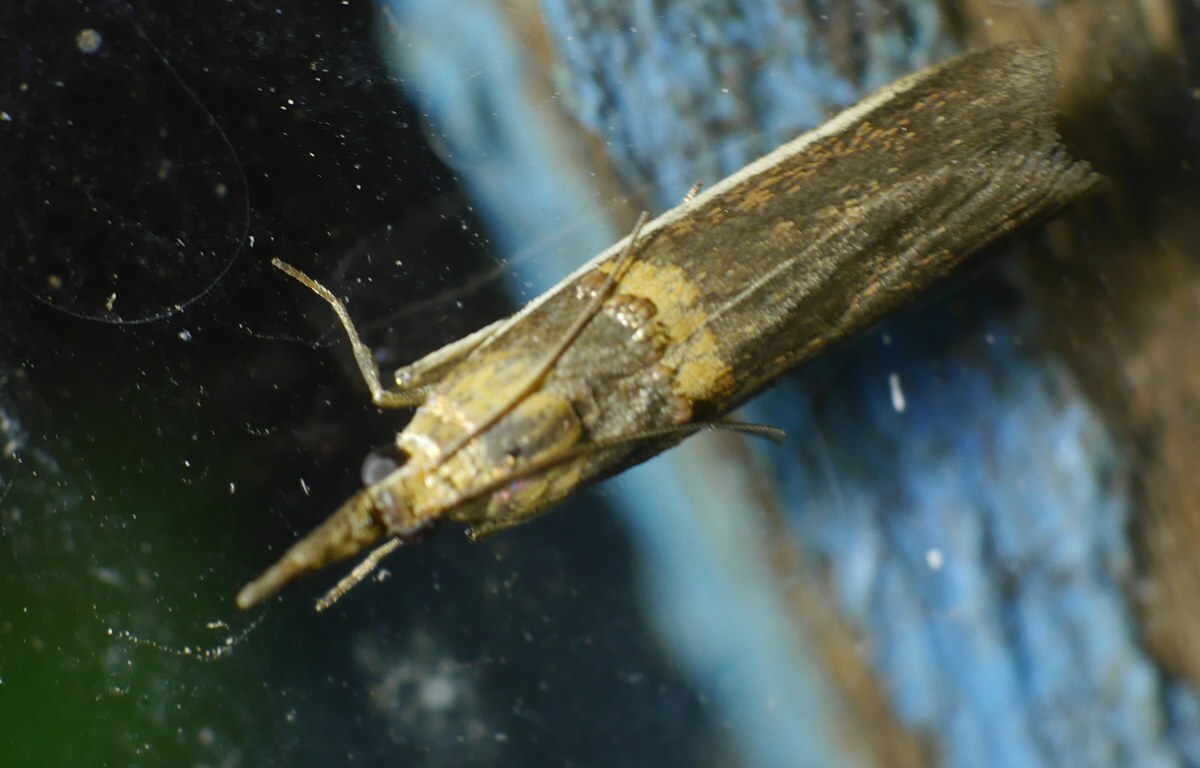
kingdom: Animalia
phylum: Arthropoda
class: Insecta
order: Lepidoptera
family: Pyralidae
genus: Etiella
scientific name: Etiella zinckenella
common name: Gold-banded etiella moth
